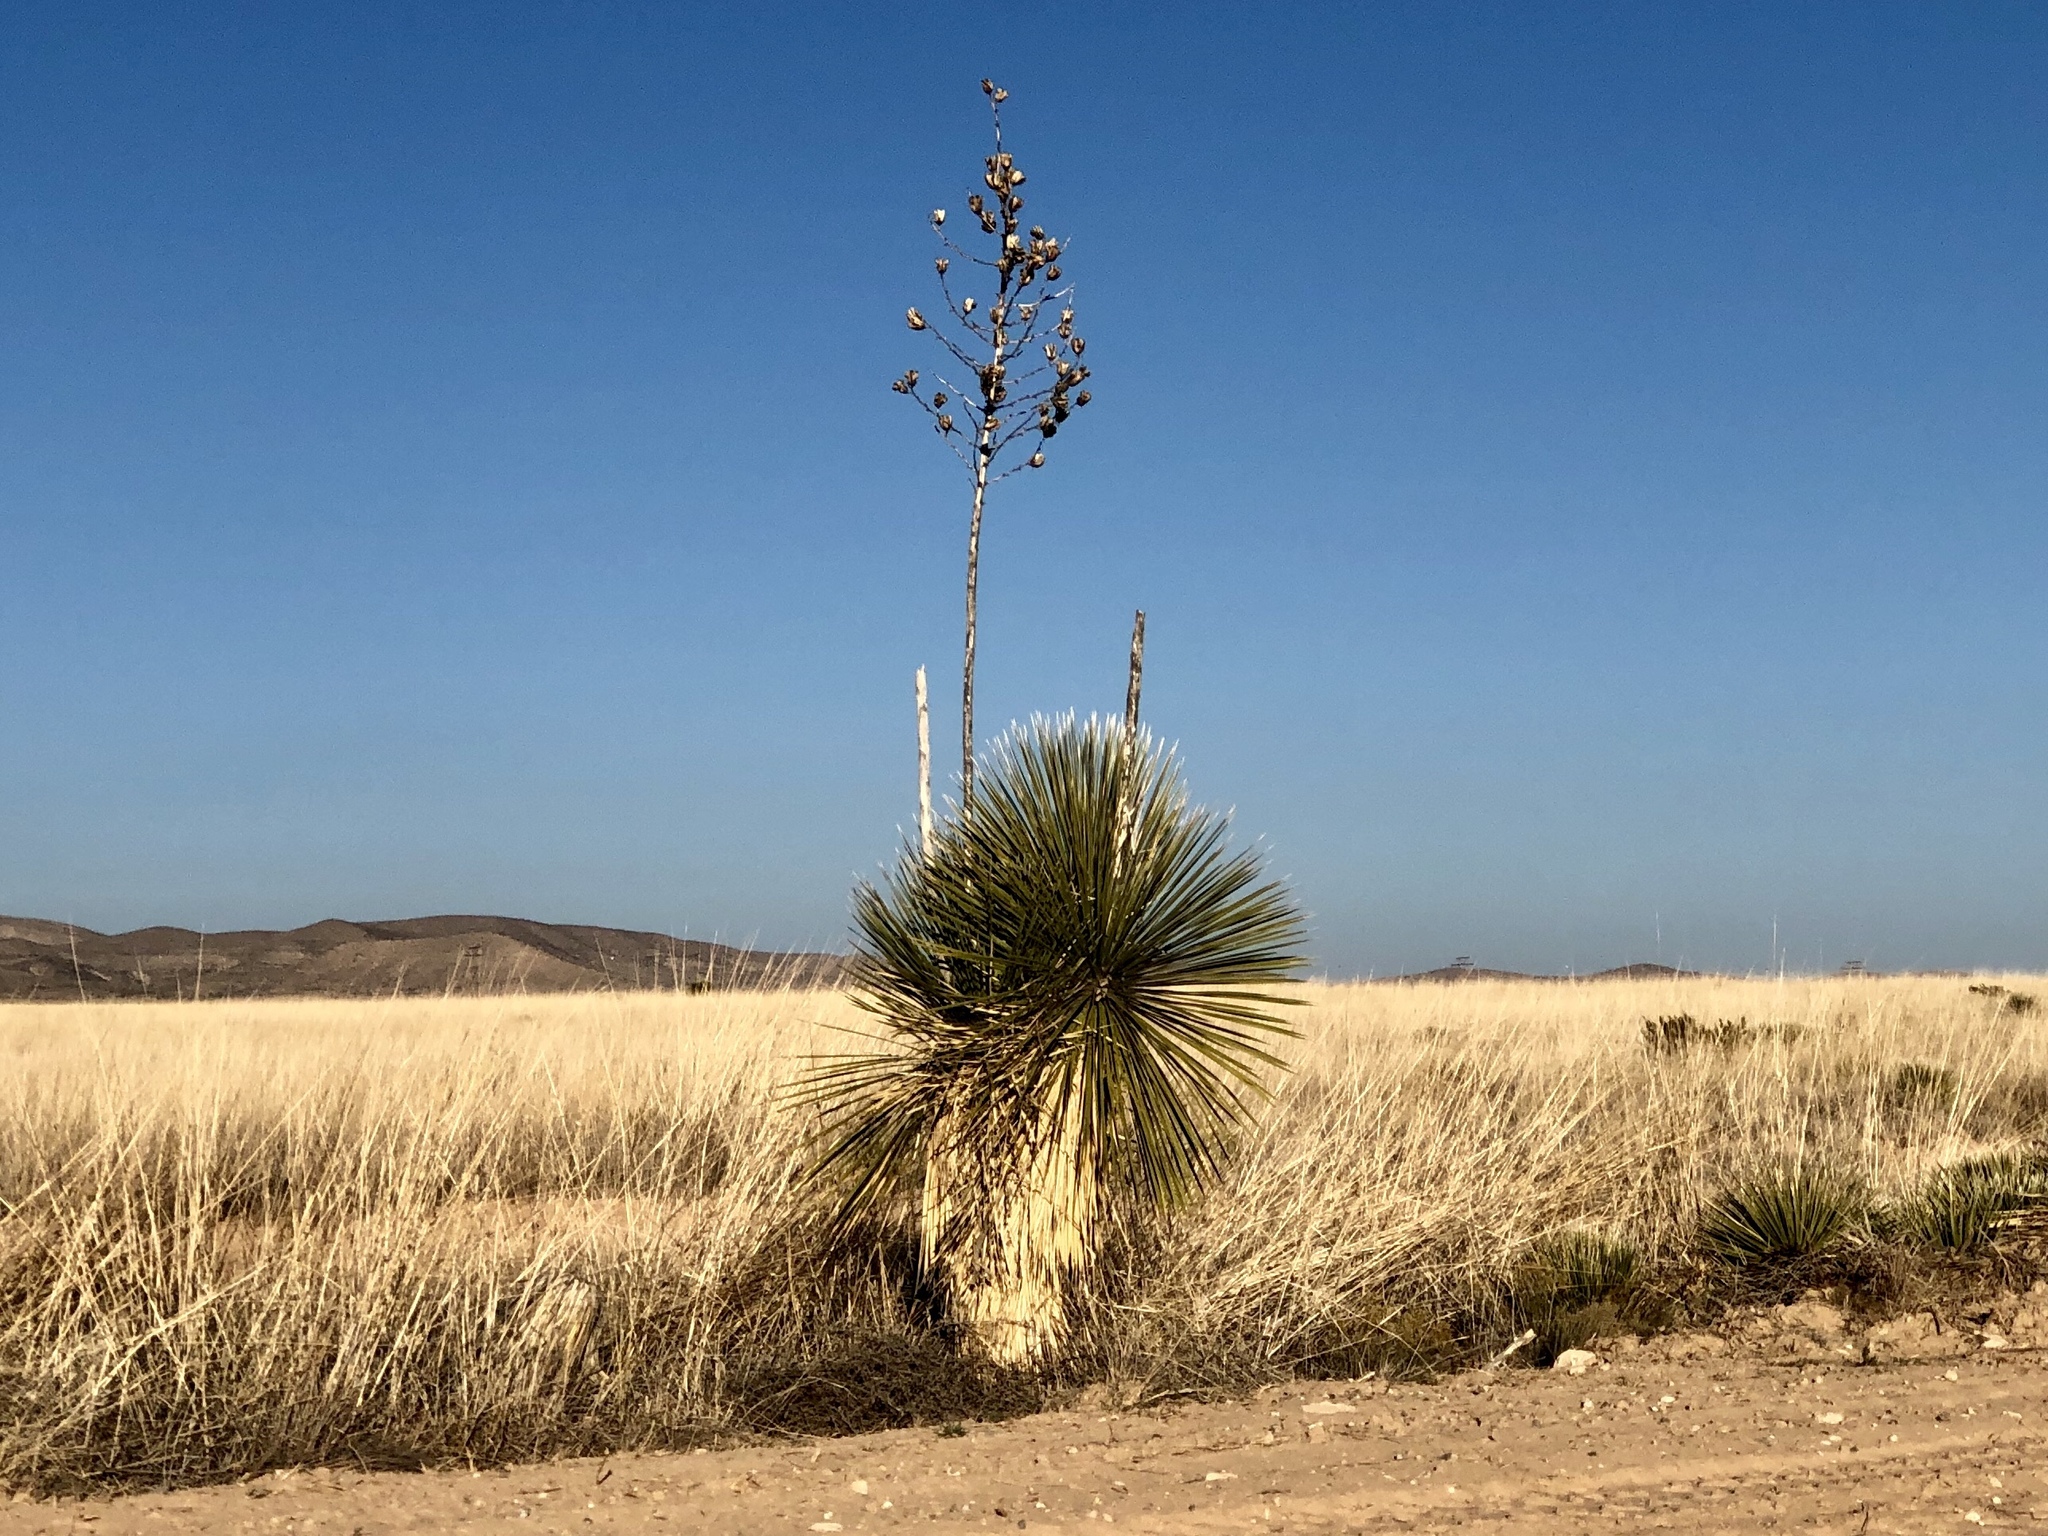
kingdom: Plantae
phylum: Tracheophyta
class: Liliopsida
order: Asparagales
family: Asparagaceae
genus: Yucca
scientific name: Yucca elata
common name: Palmella
